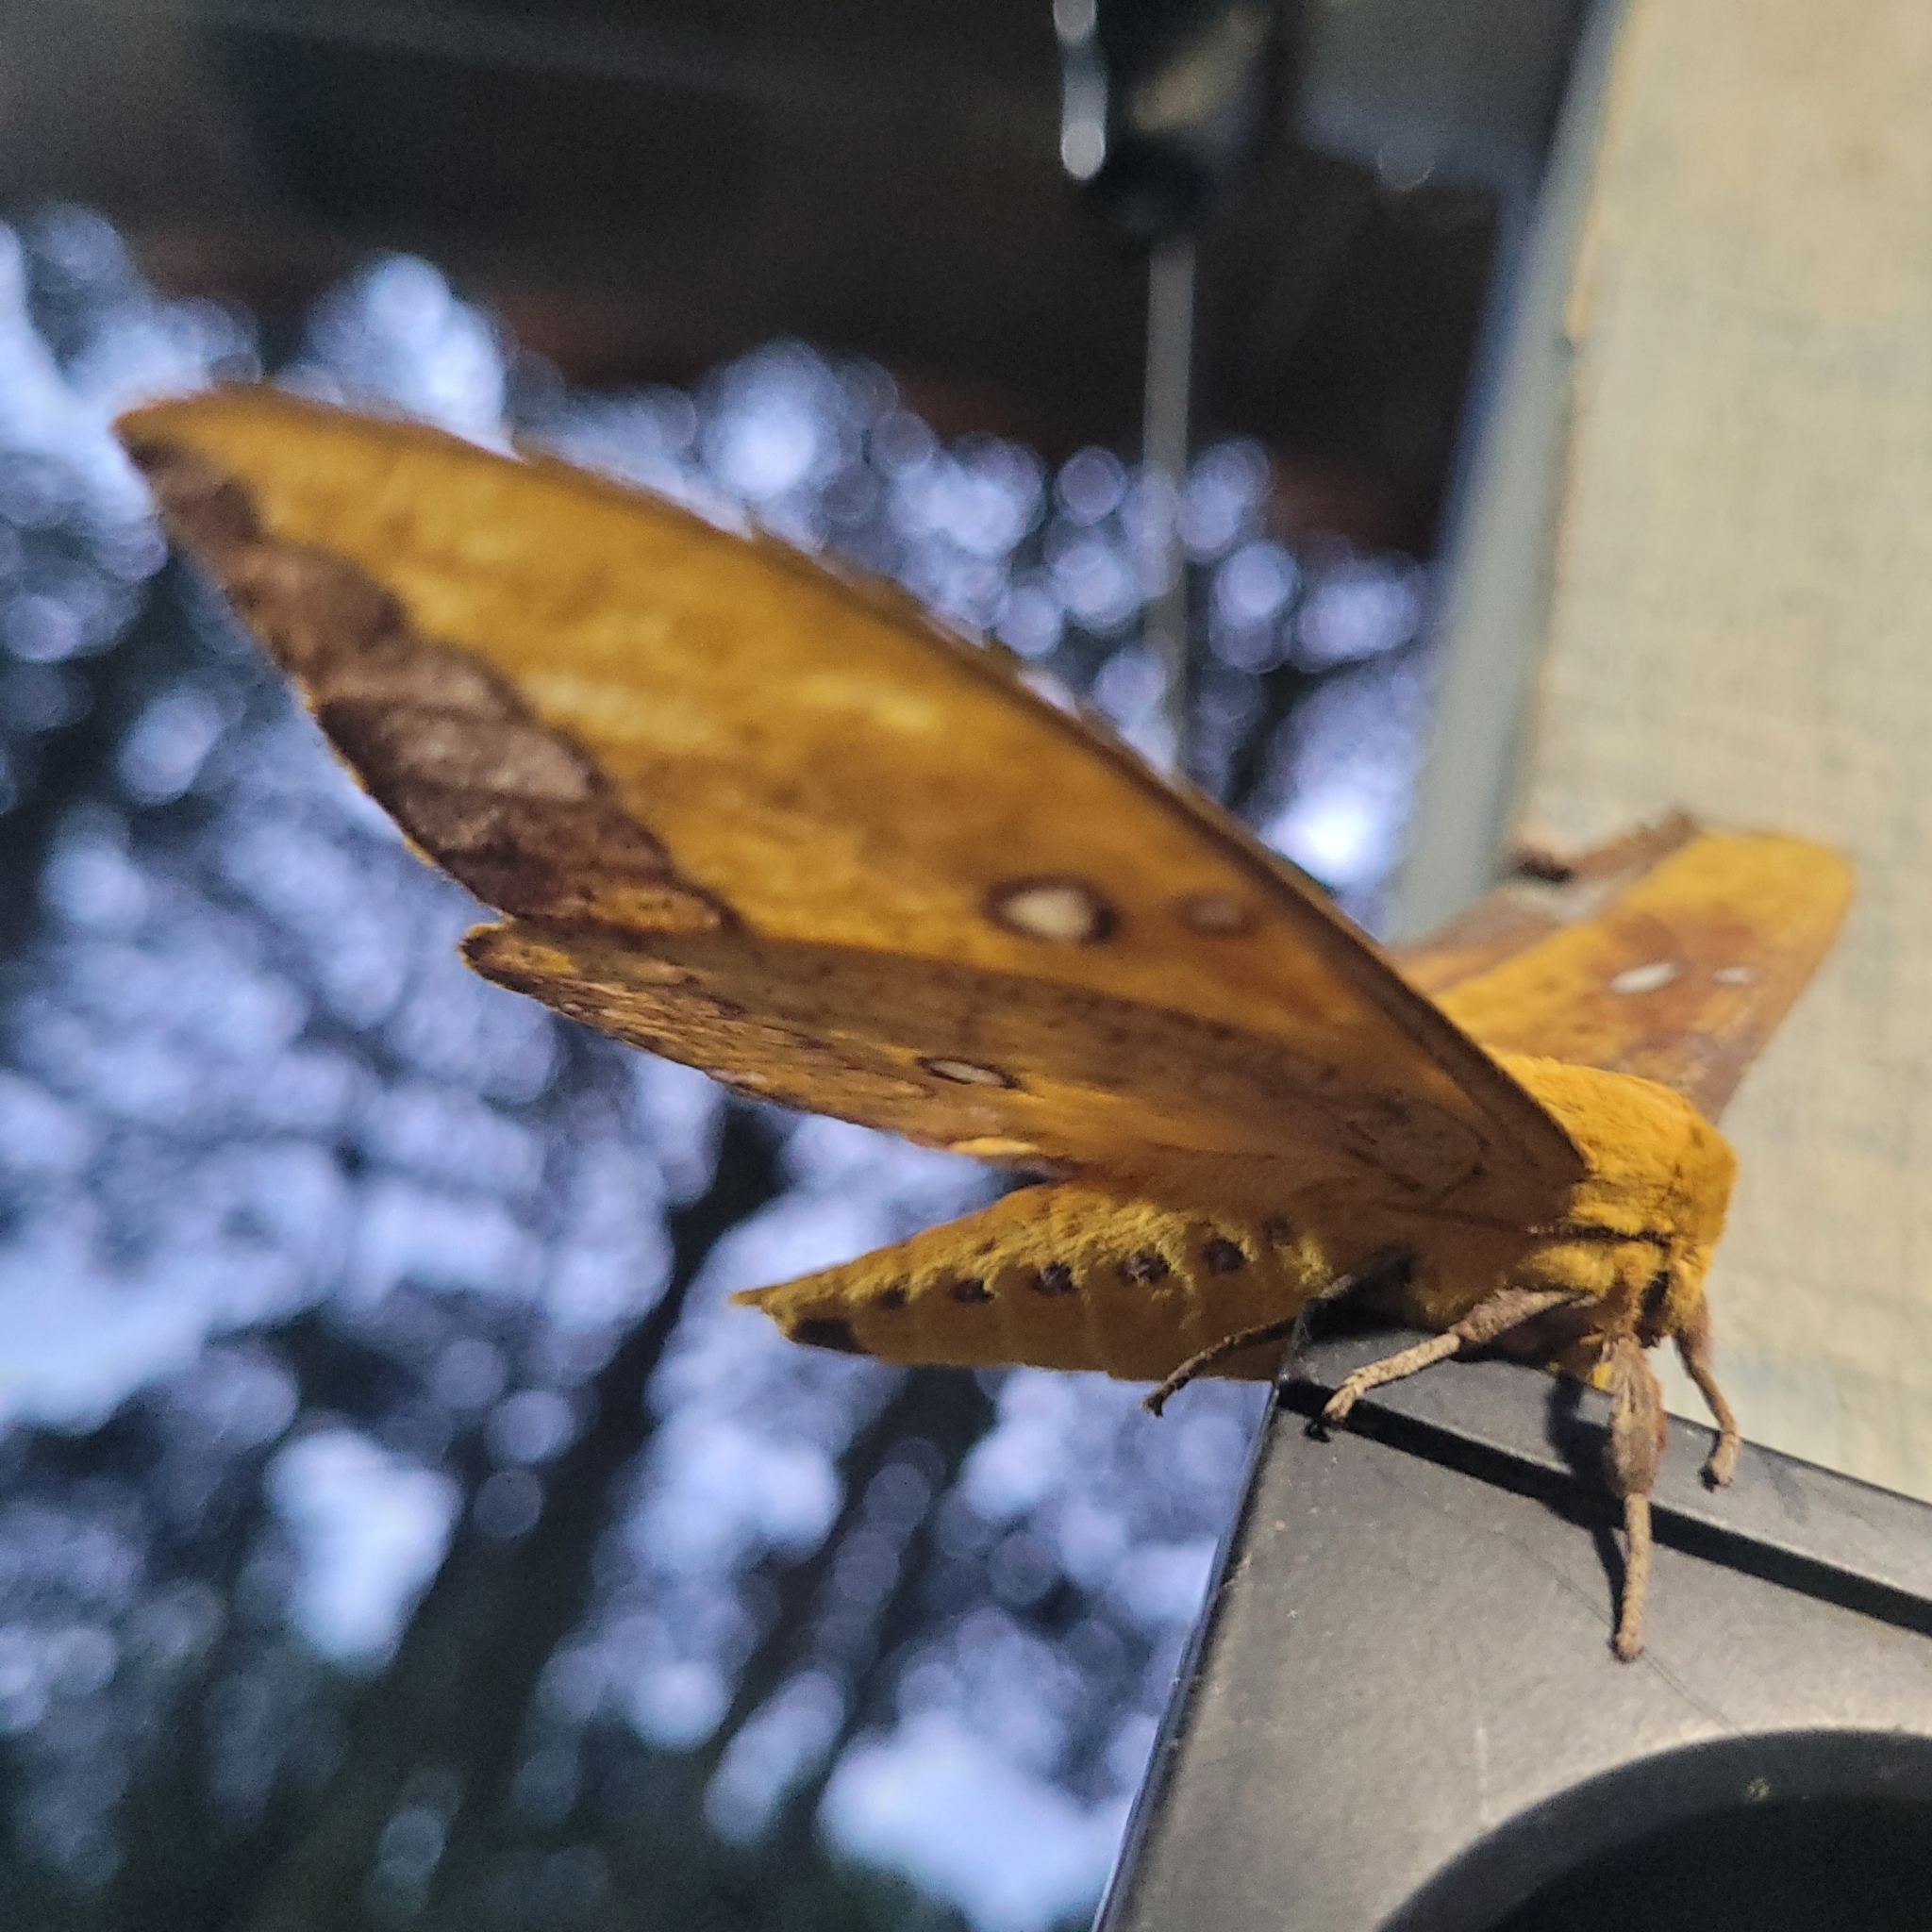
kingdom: Animalia
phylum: Arthropoda
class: Insecta
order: Lepidoptera
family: Saturniidae
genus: Eacles
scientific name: Eacles ducalis
